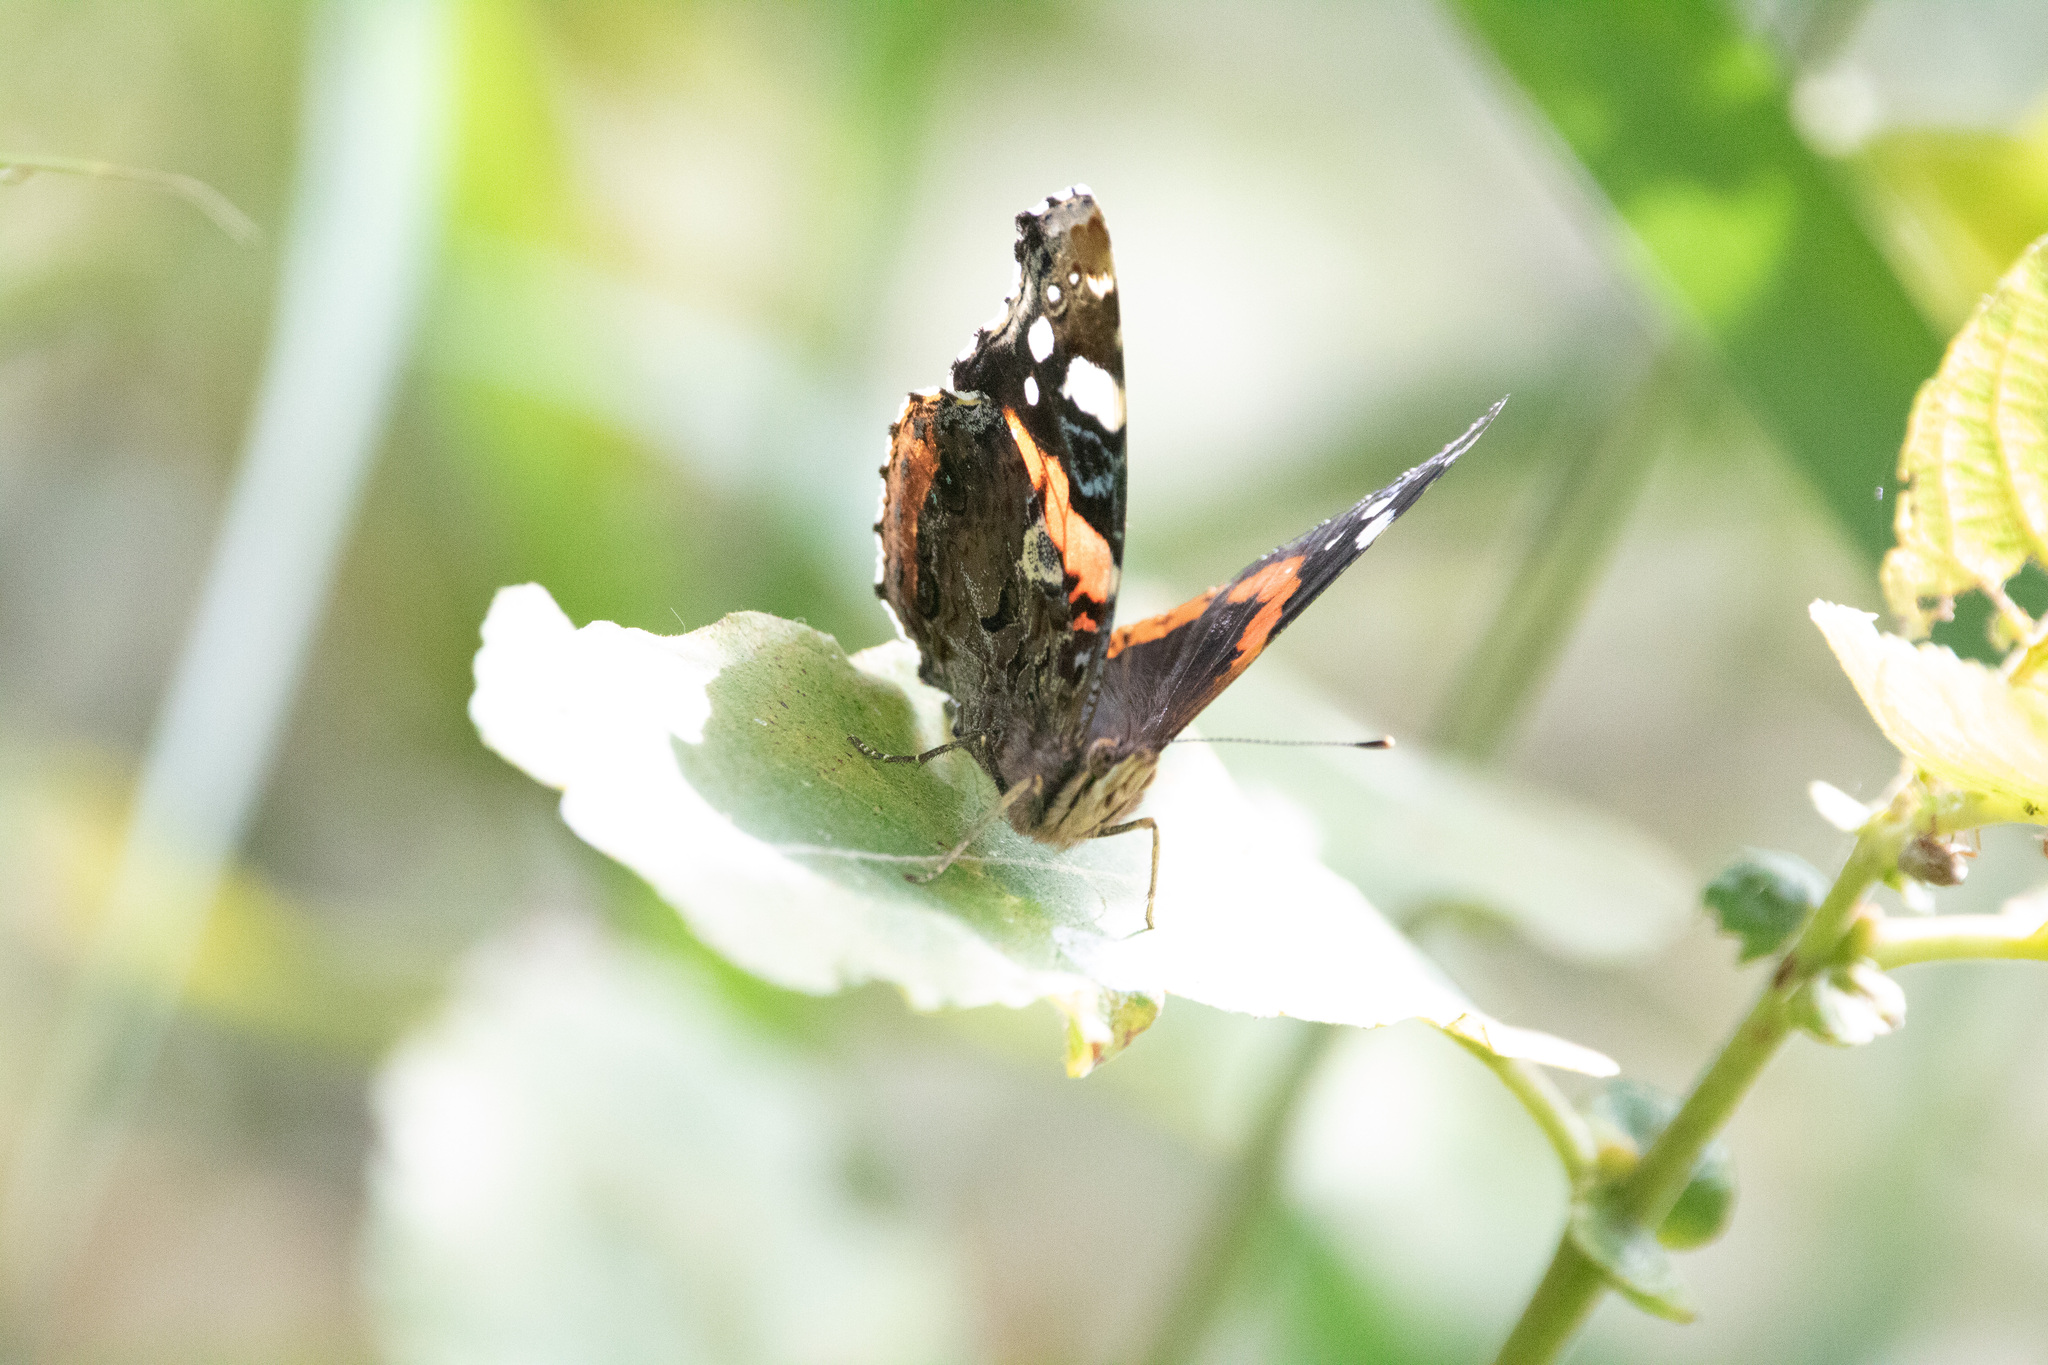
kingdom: Animalia
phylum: Arthropoda
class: Insecta
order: Lepidoptera
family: Nymphalidae
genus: Vanessa
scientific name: Vanessa atalanta
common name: Red admiral
